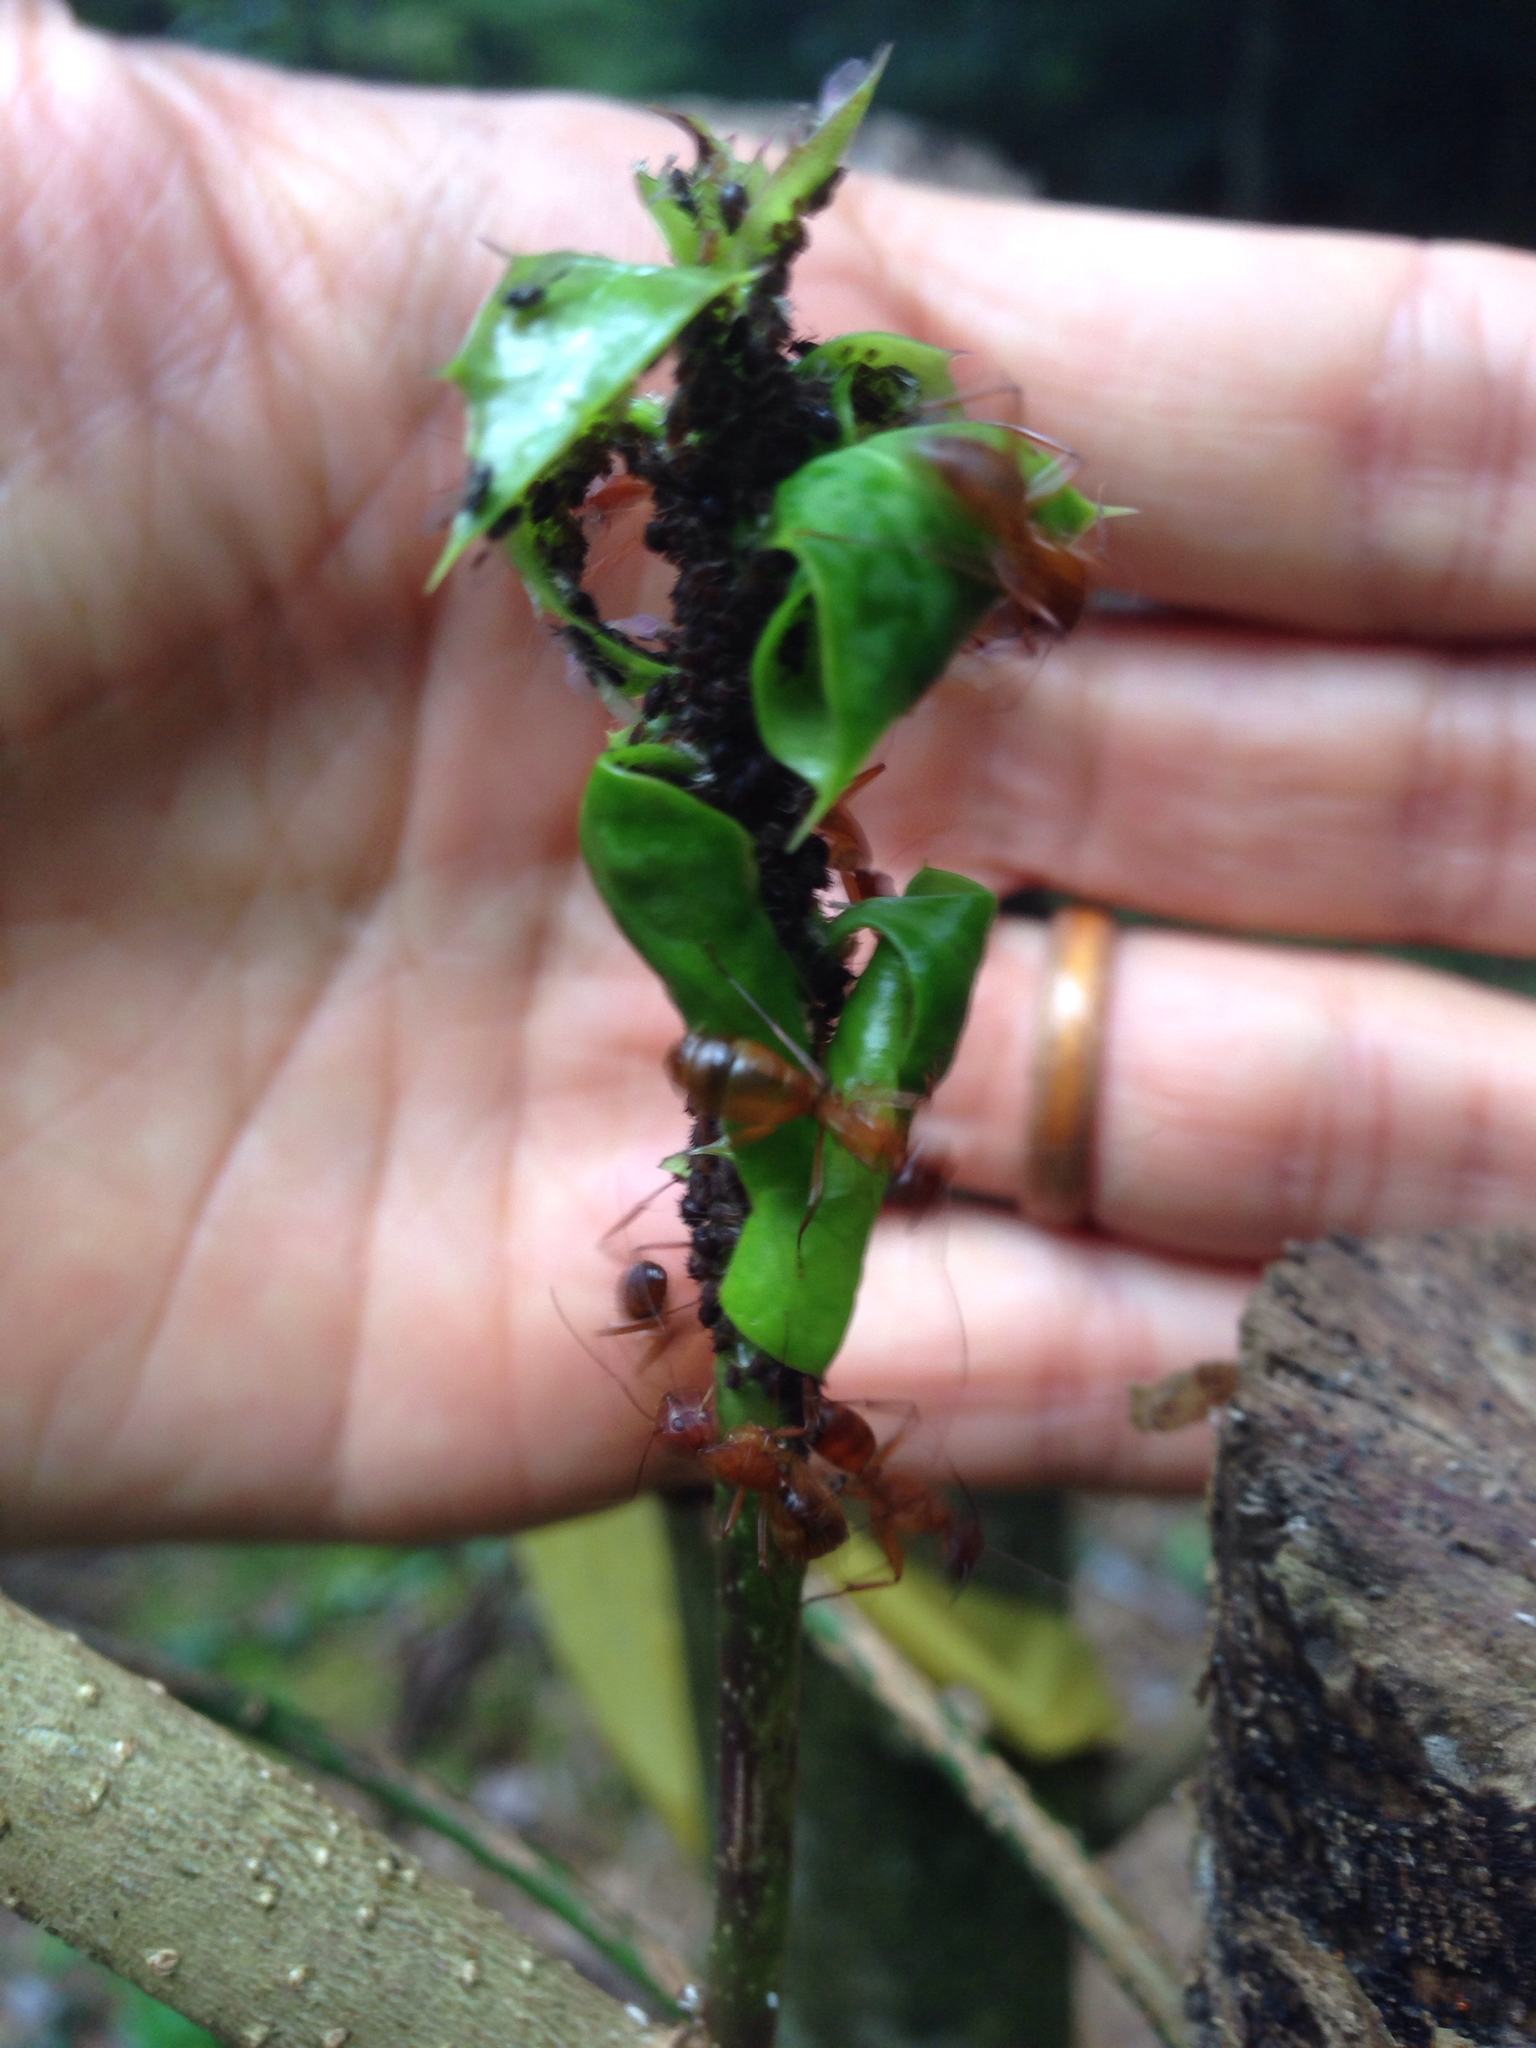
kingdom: Animalia
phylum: Arthropoda
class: Insecta
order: Hymenoptera
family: Formicidae
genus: Camponotus
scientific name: Camponotus castaneus
